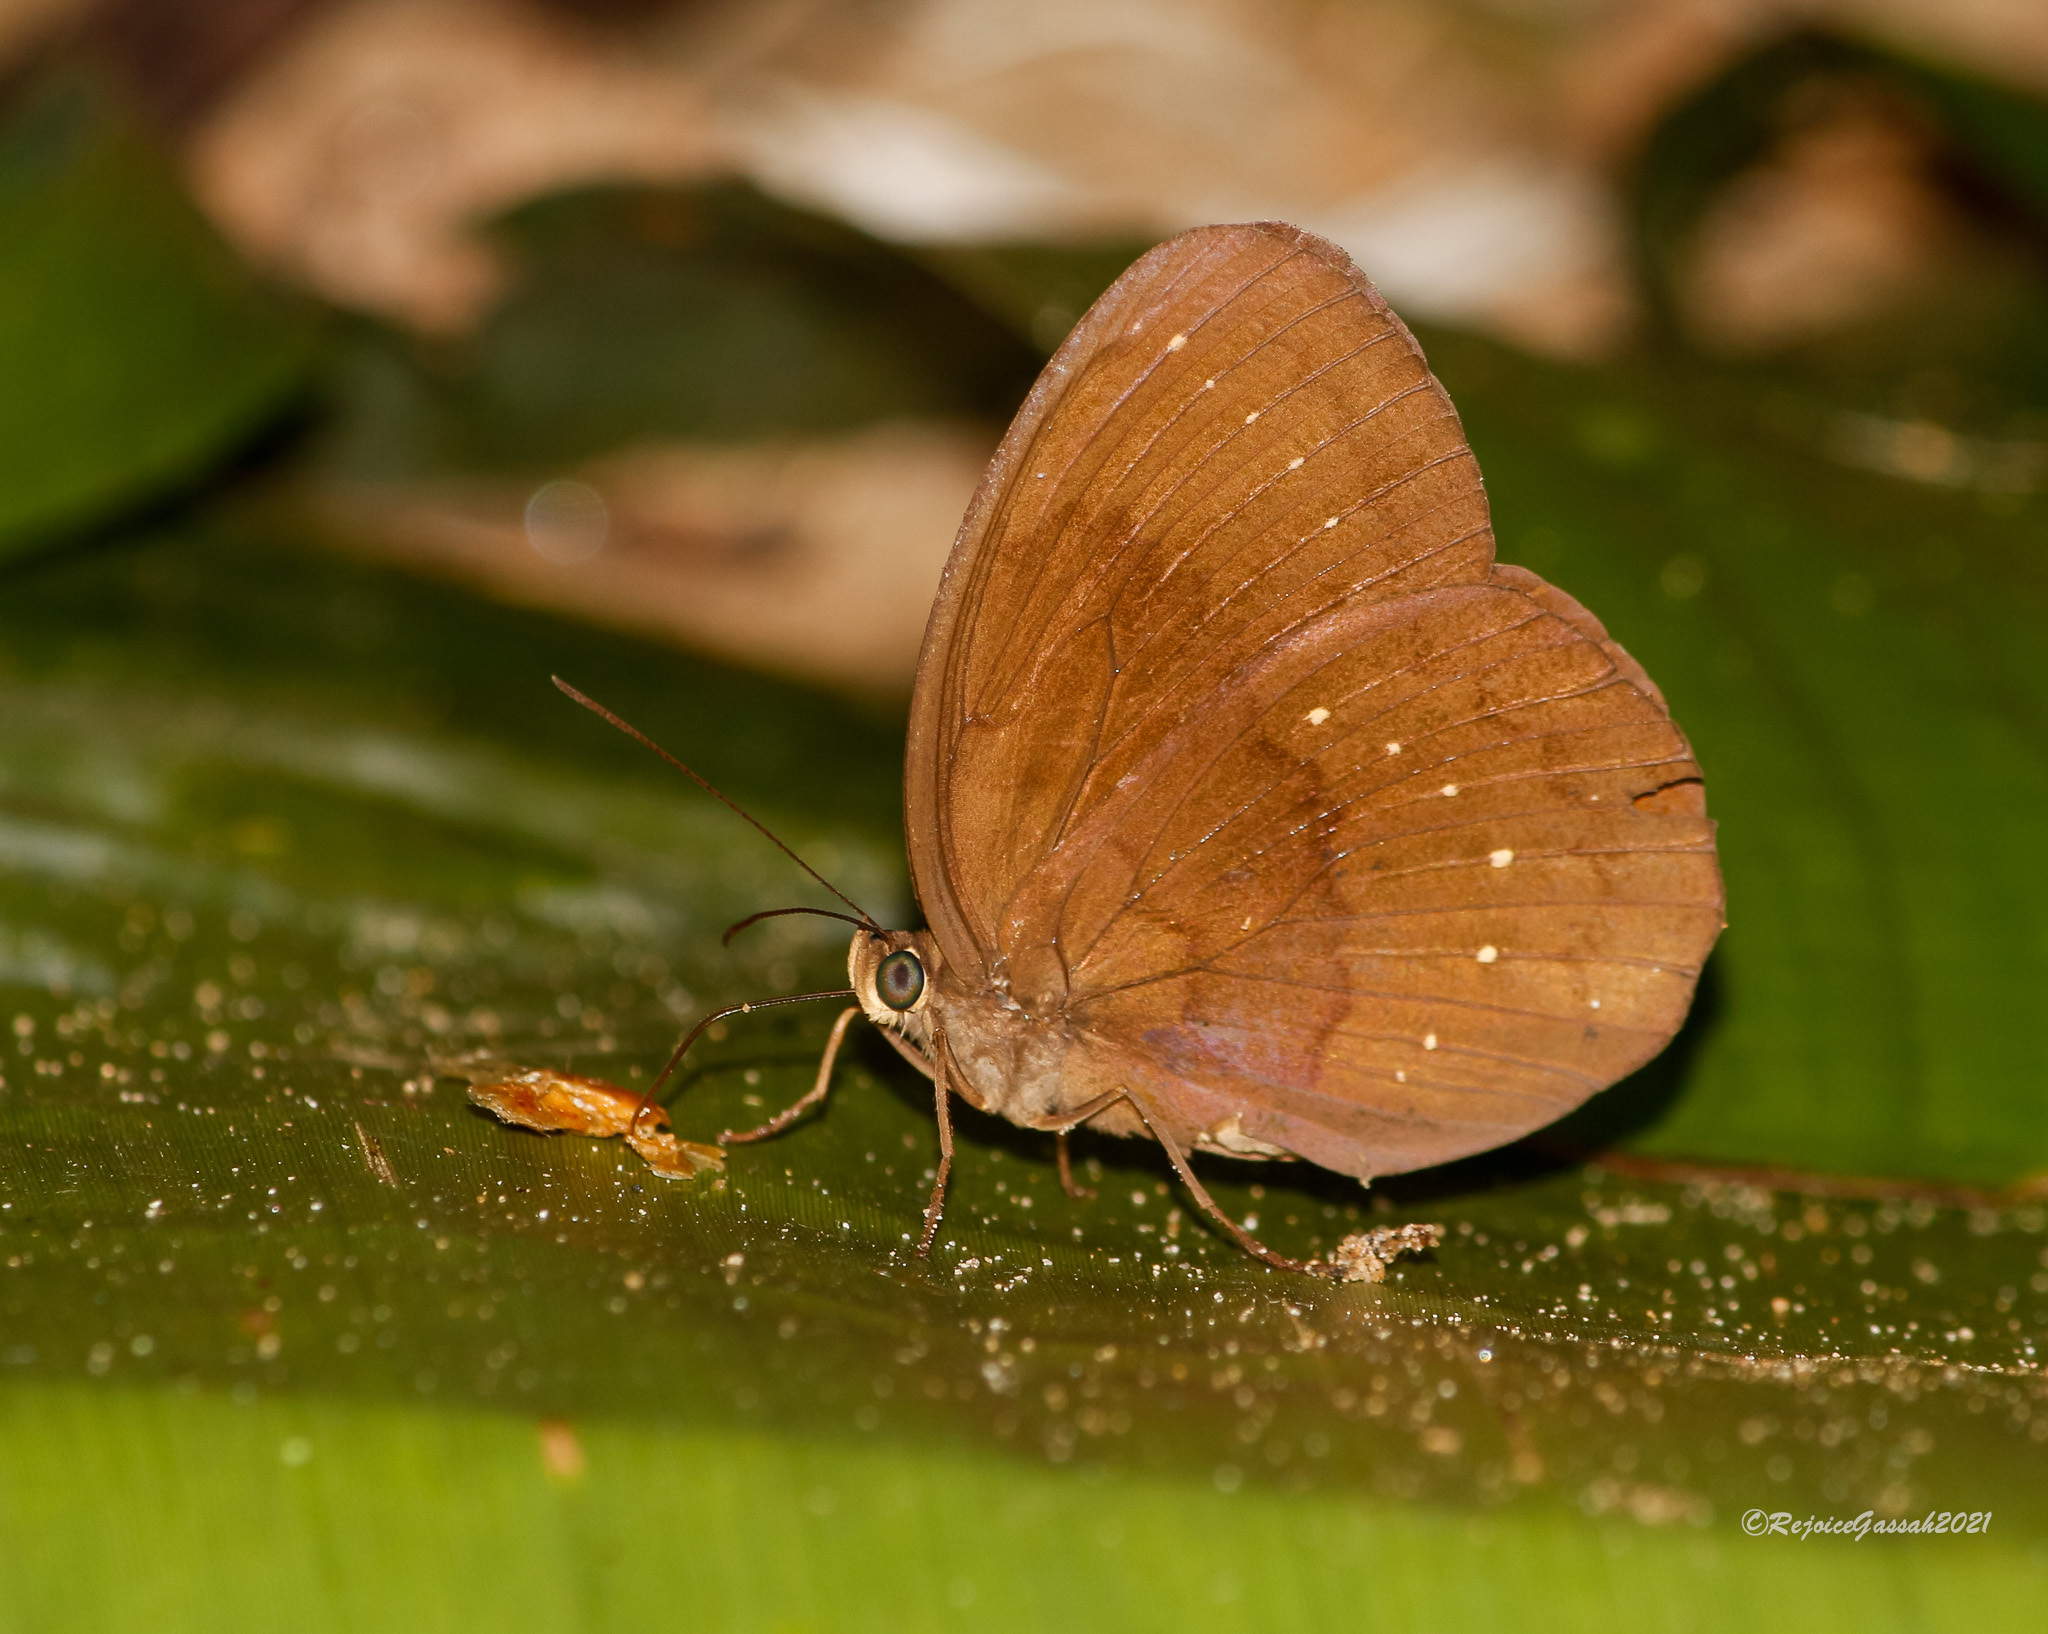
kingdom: Animalia
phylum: Arthropoda
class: Insecta
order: Lepidoptera
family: Nymphalidae
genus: Faunis
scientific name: Faunis canens
